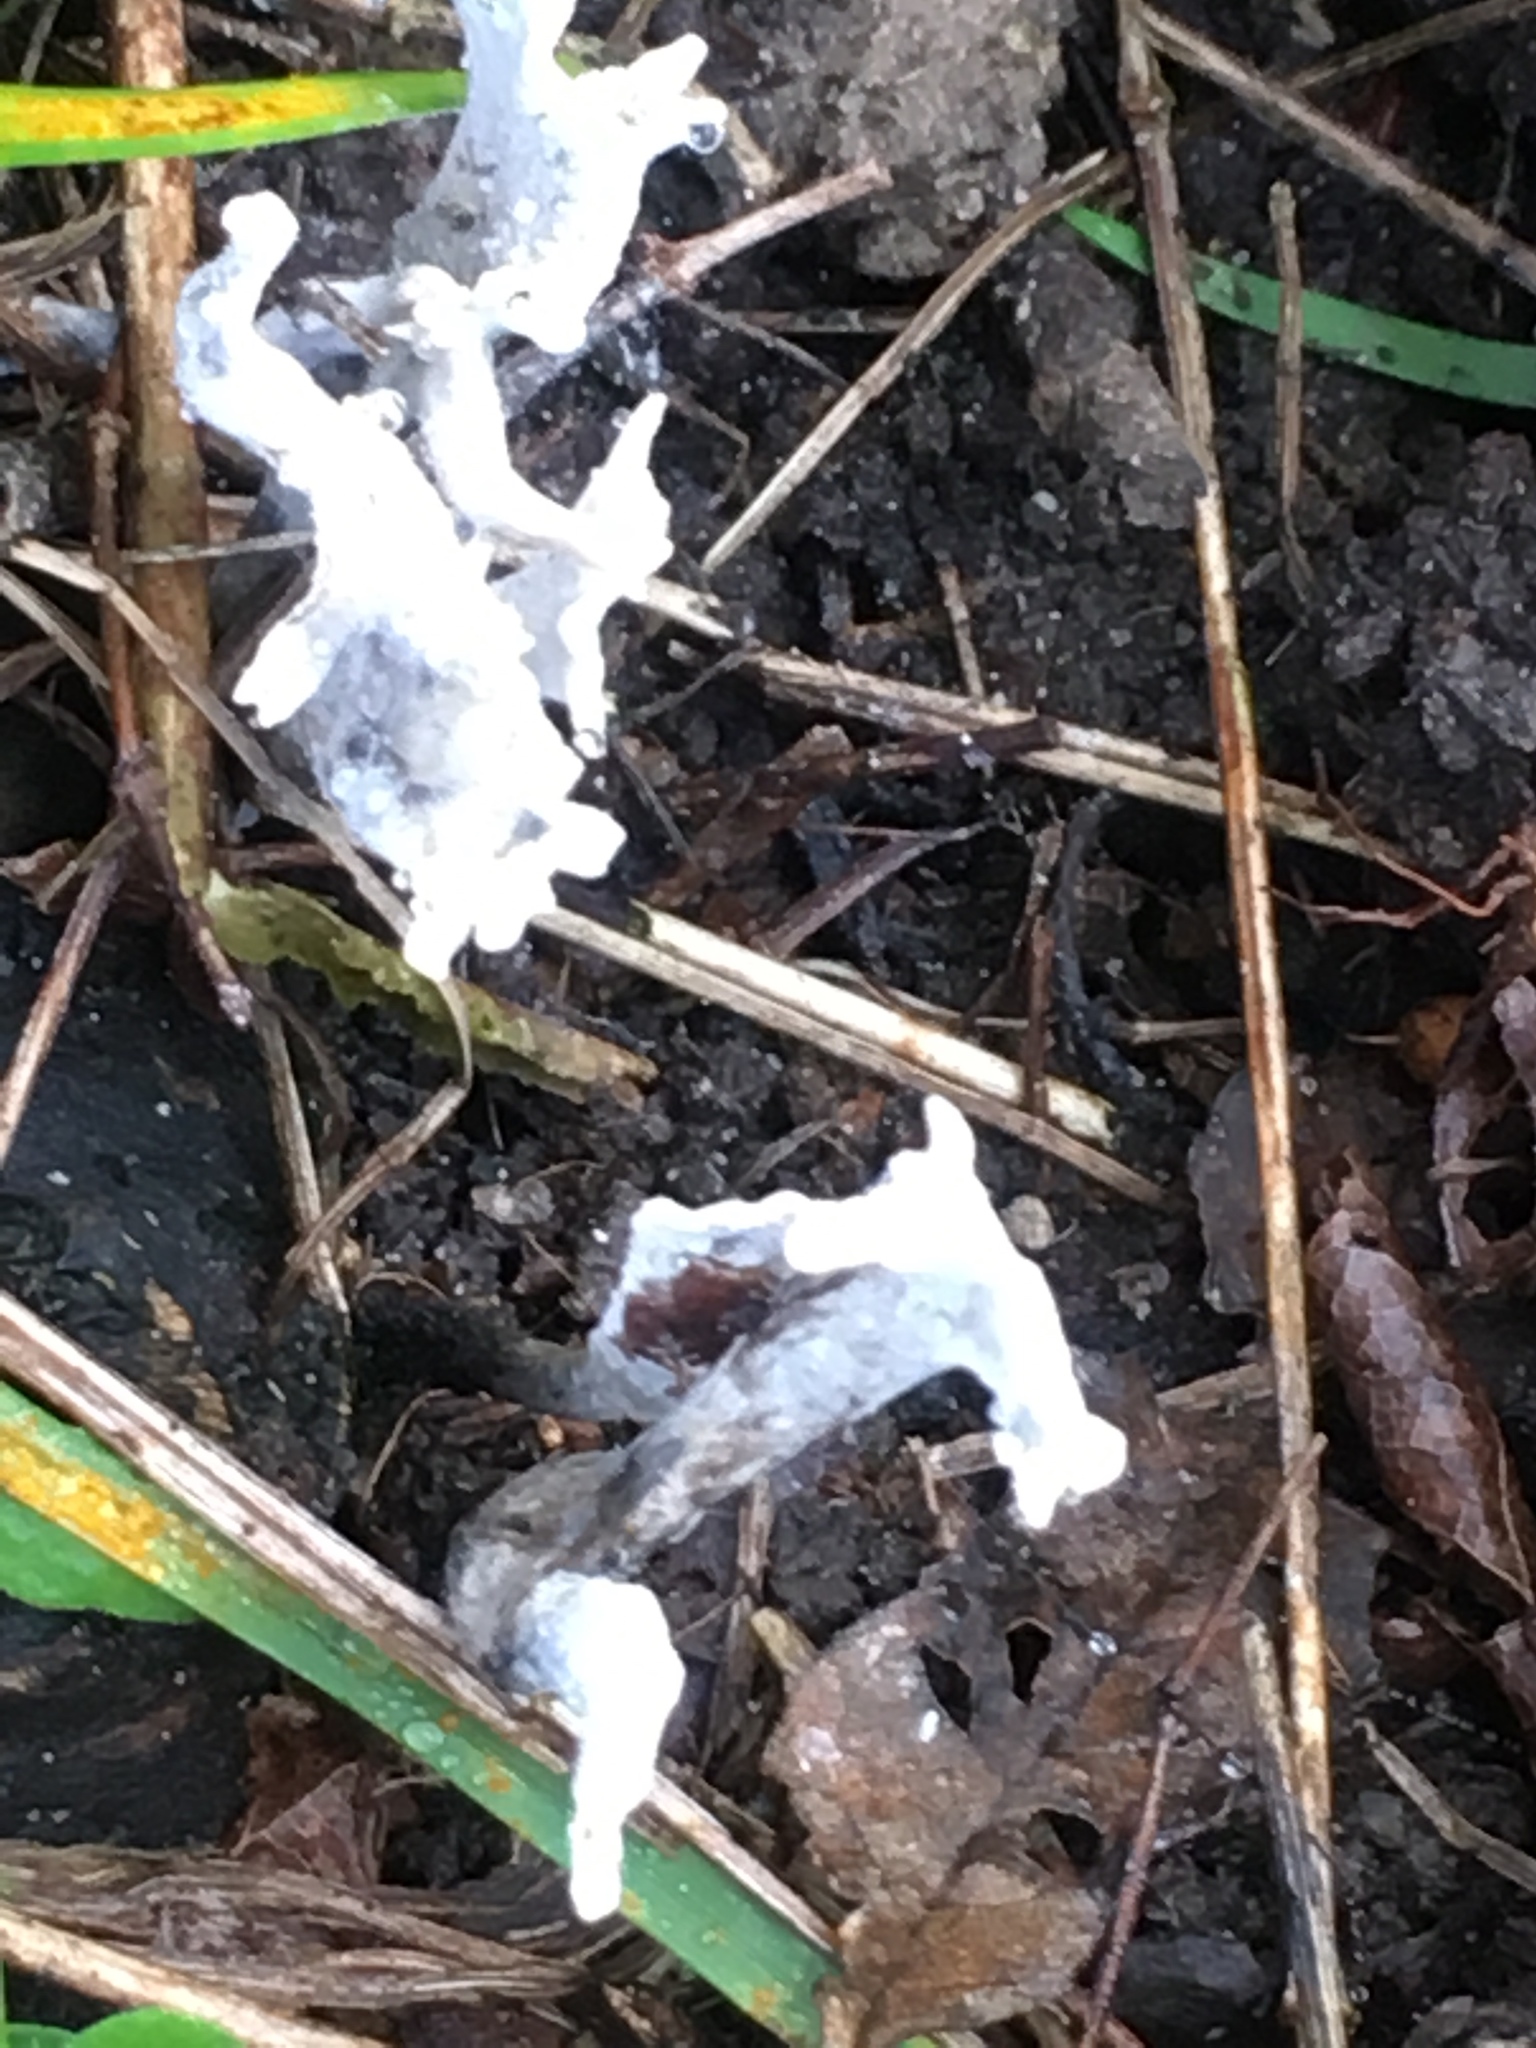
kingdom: Fungi
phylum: Ascomycota
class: Sordariomycetes
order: Xylariales
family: Xylariaceae
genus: Xylaria
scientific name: Xylaria hypoxylon
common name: Candle-snuff fungus
